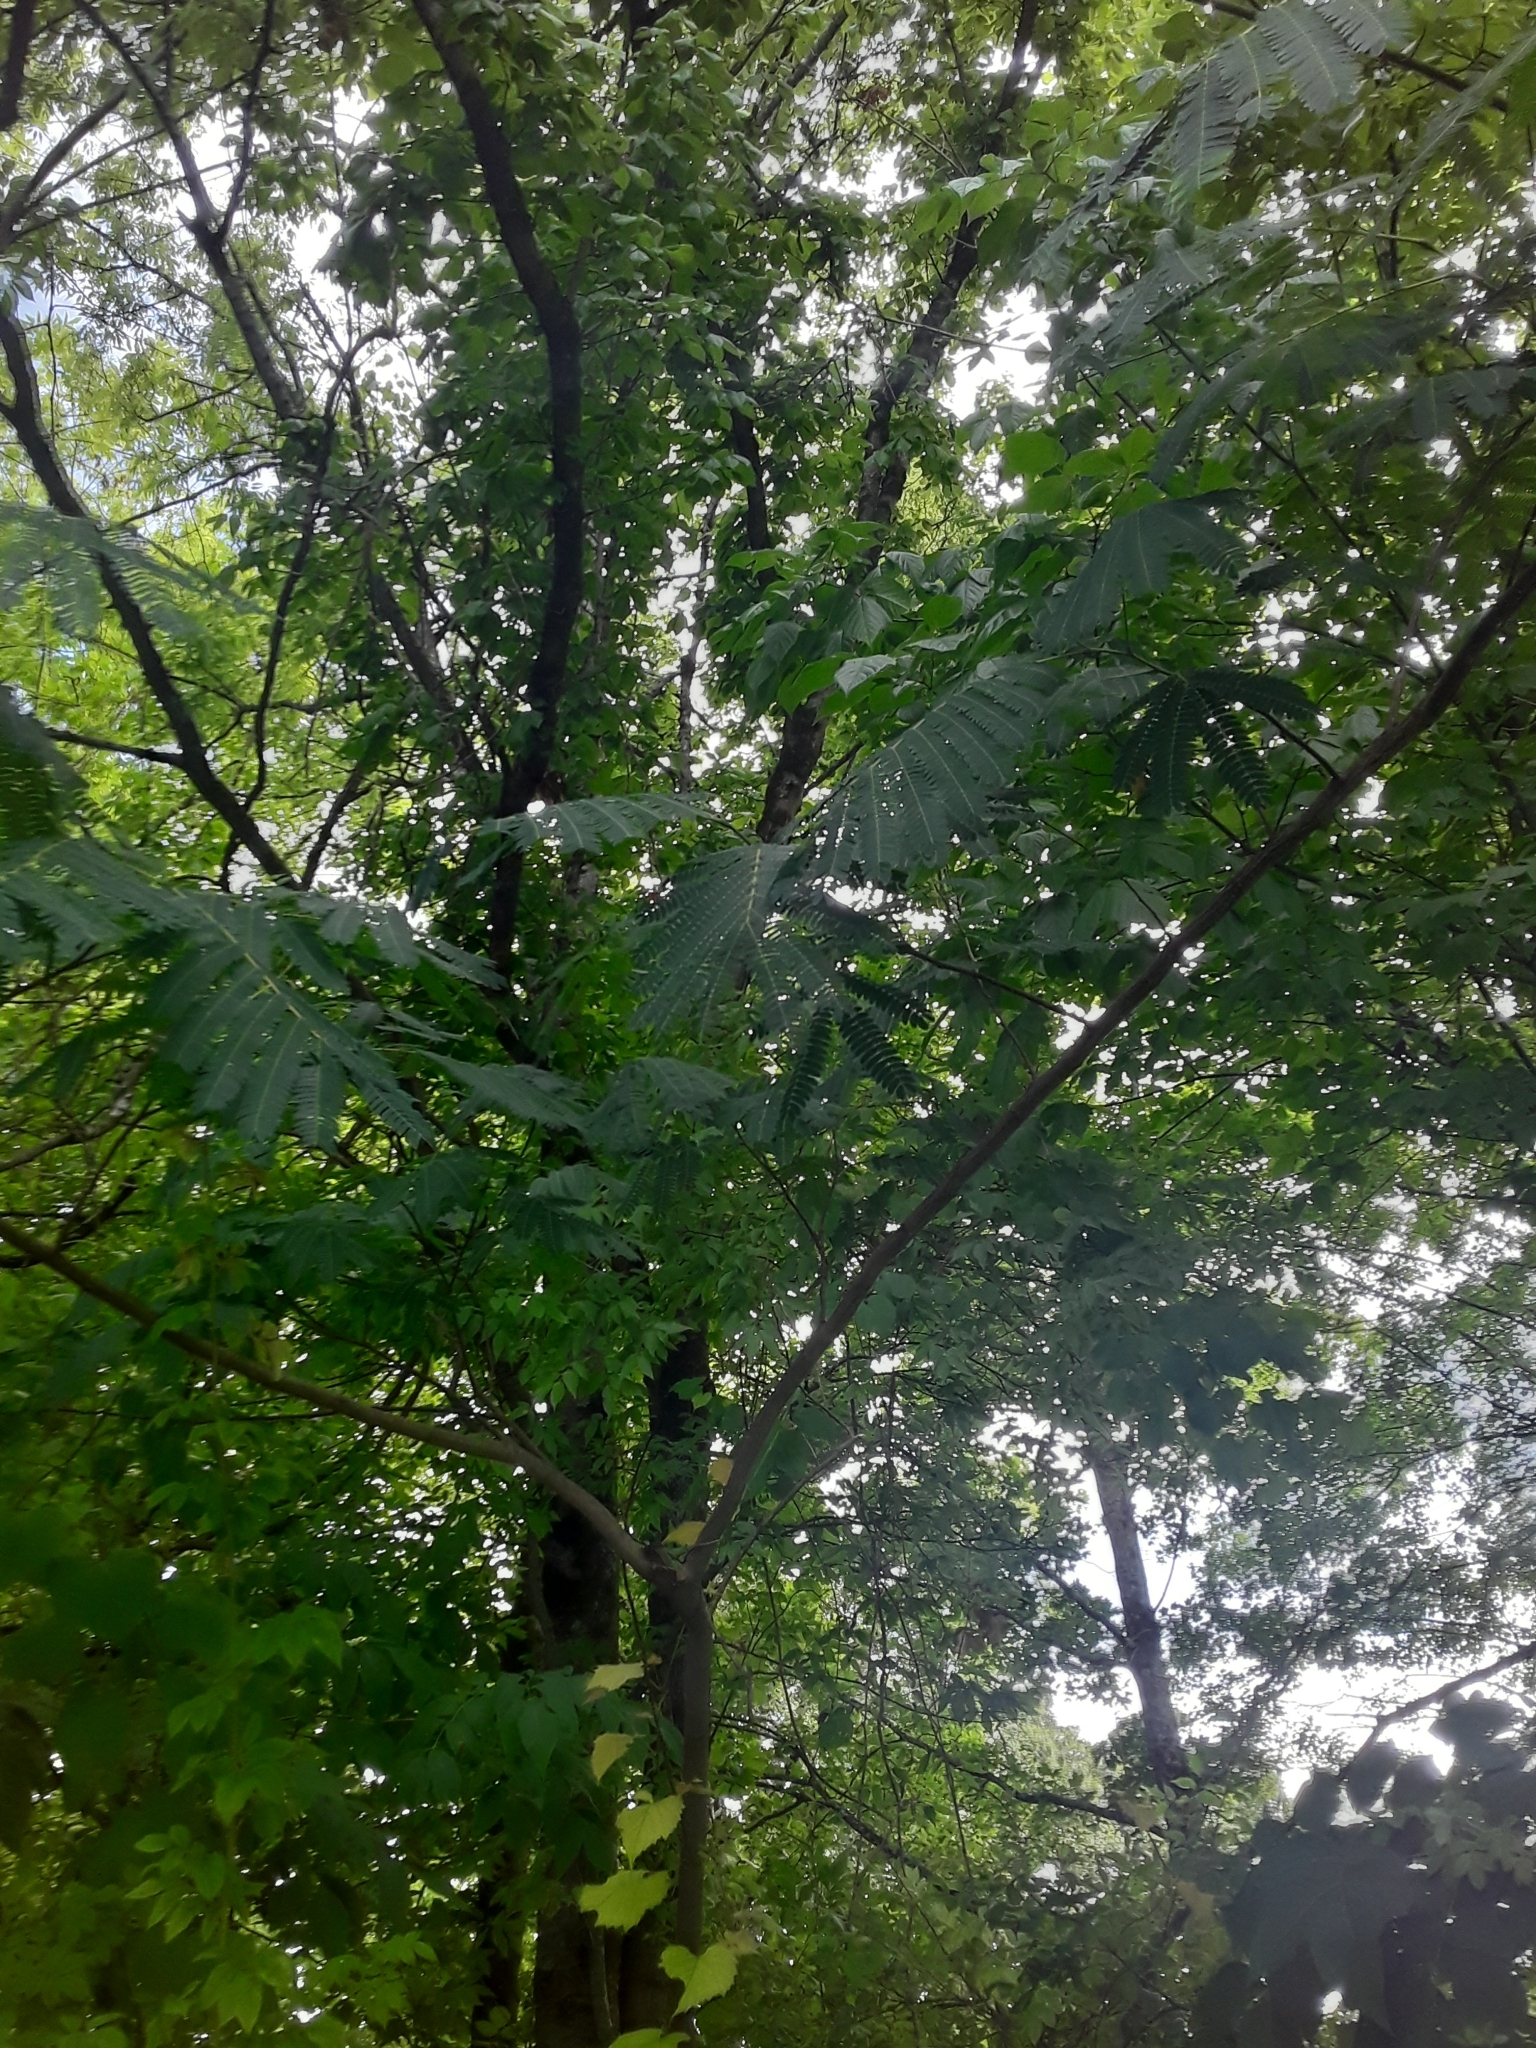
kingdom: Plantae
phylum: Tracheophyta
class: Magnoliopsida
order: Fabales
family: Fabaceae
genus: Albizia
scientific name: Albizia julibrissin
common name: Silktree
